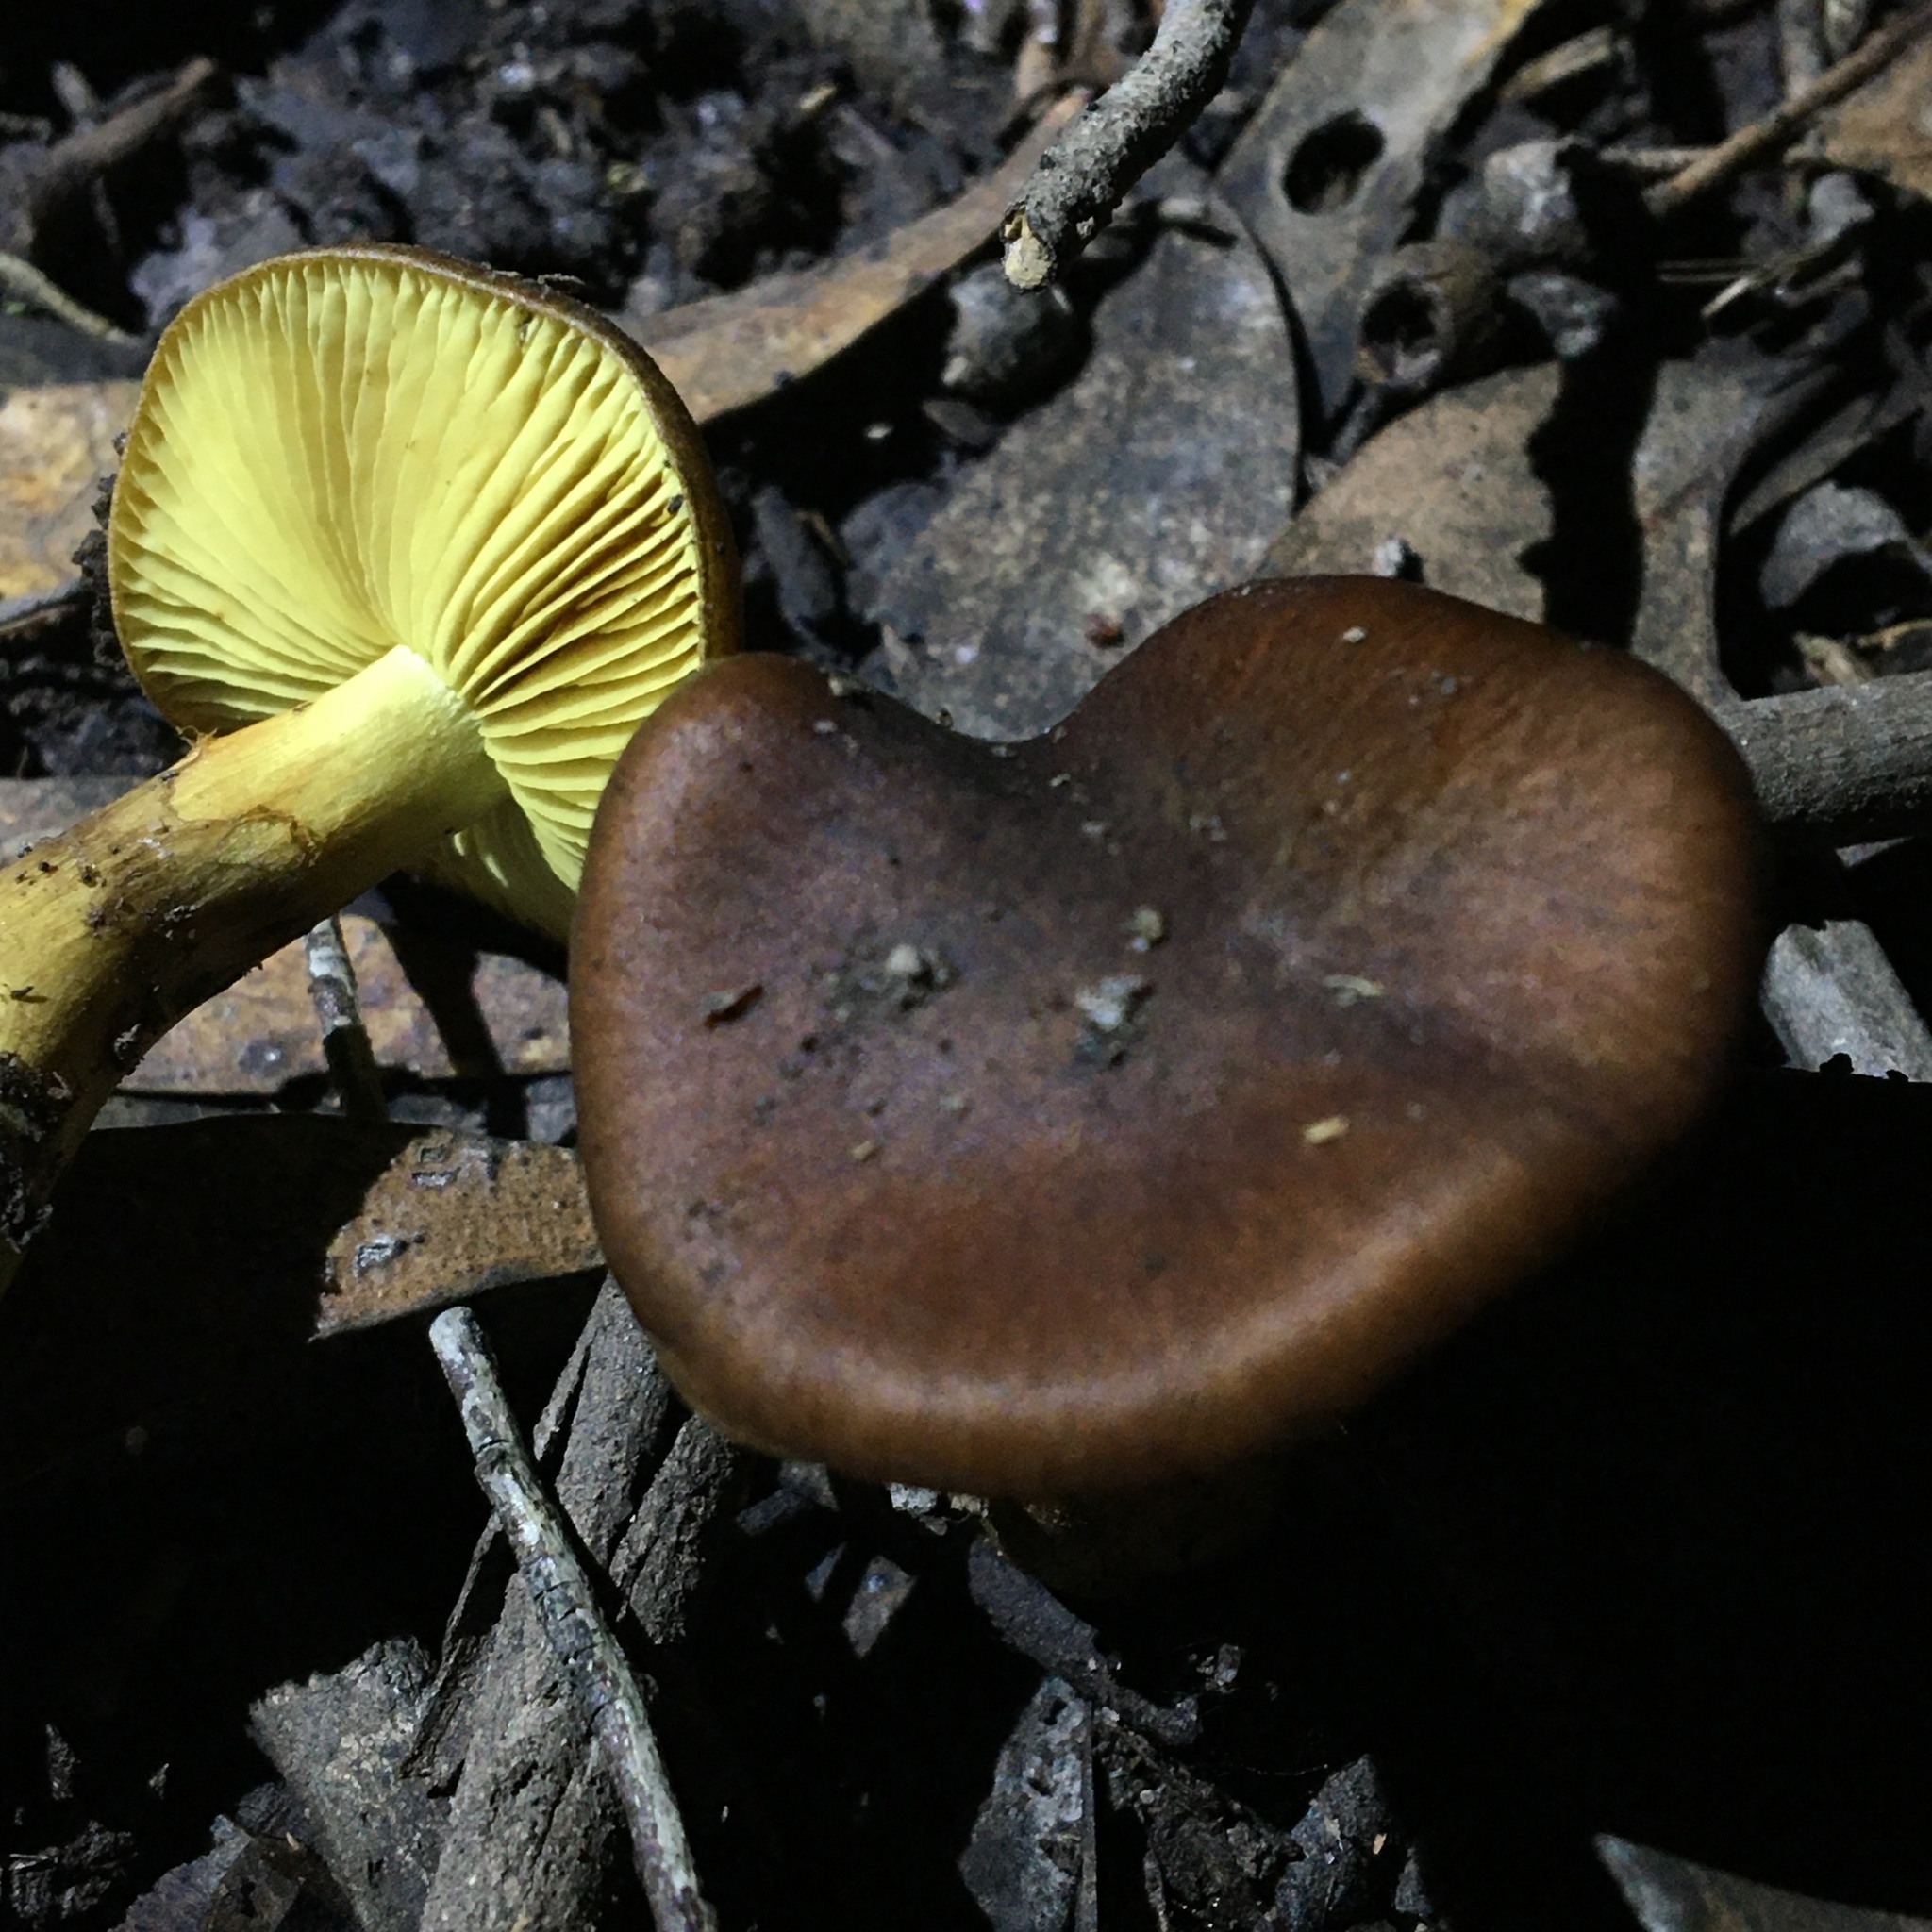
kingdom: Fungi
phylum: Basidiomycota
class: Agaricomycetes
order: Agaricales
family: Cortinariaceae
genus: Cortinarius
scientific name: Cortinarius clelandii
